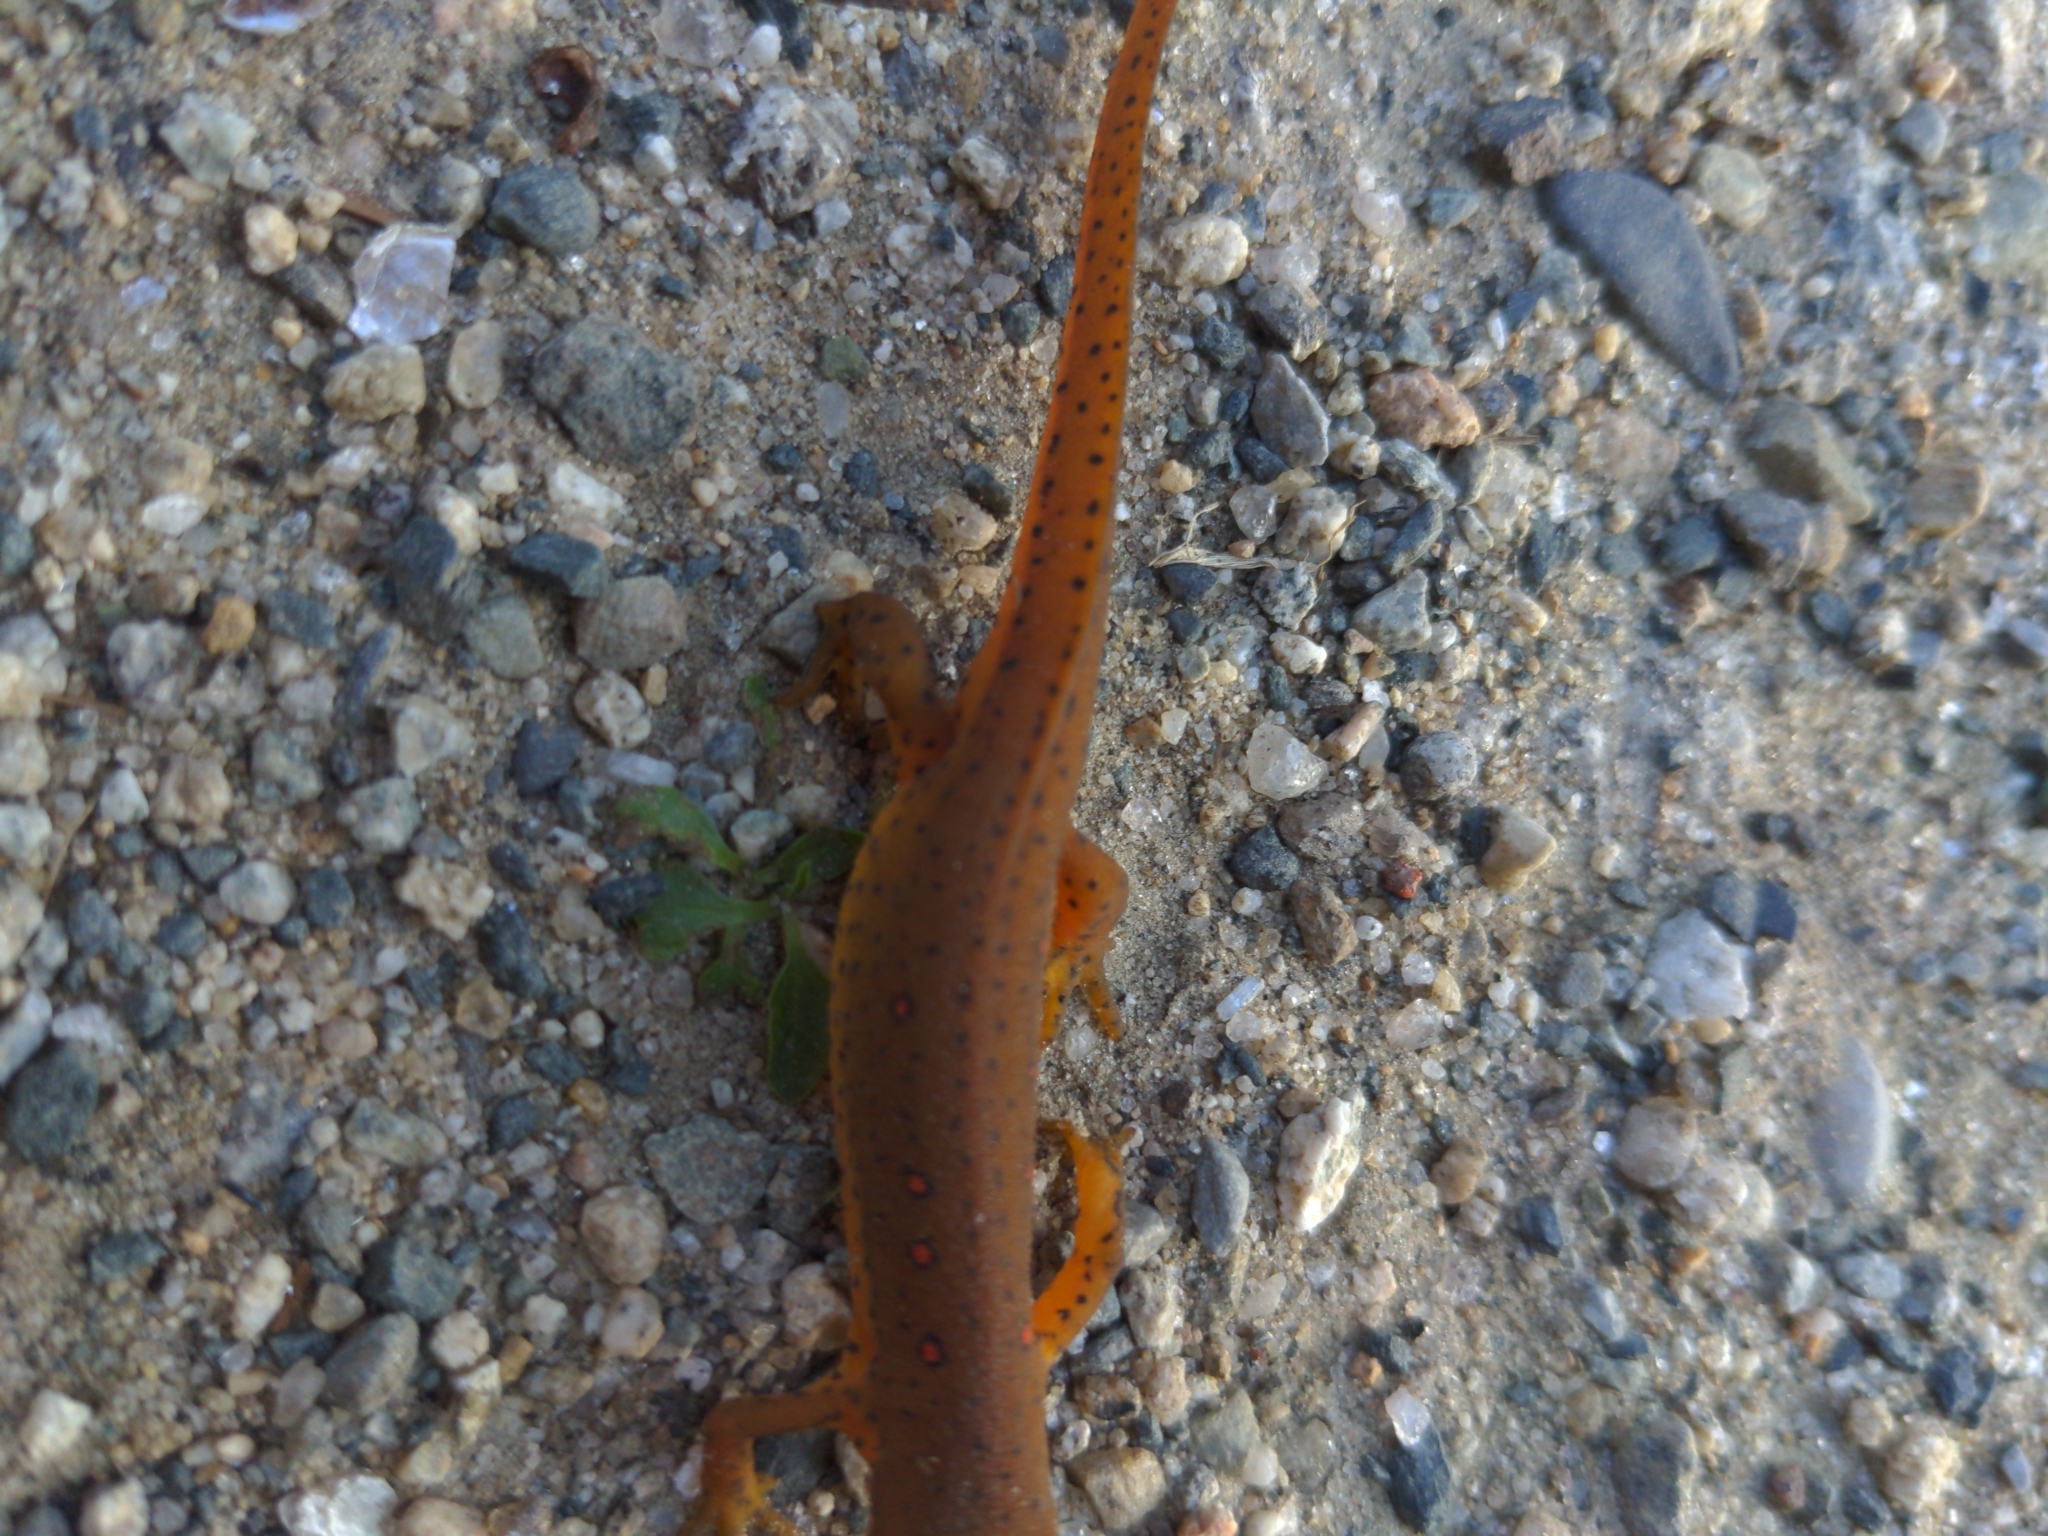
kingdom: Animalia
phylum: Chordata
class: Amphibia
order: Caudata
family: Salamandridae
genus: Notophthalmus
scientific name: Notophthalmus viridescens
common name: Eastern newt
